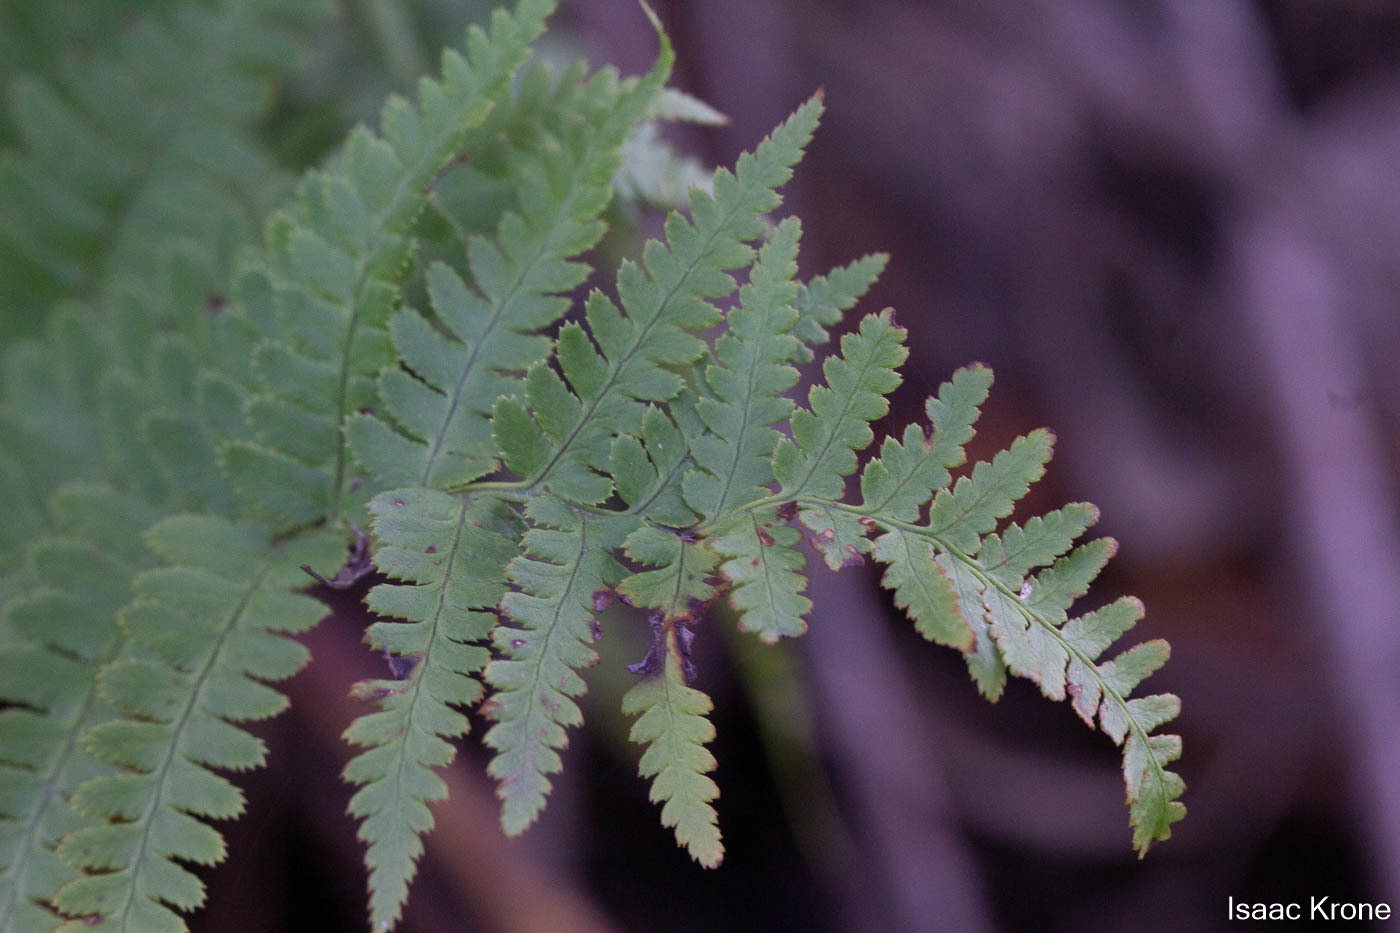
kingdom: Plantae
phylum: Tracheophyta
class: Polypodiopsida
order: Polypodiales
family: Dryopteridaceae
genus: Dryopteris
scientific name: Dryopteris arguta
